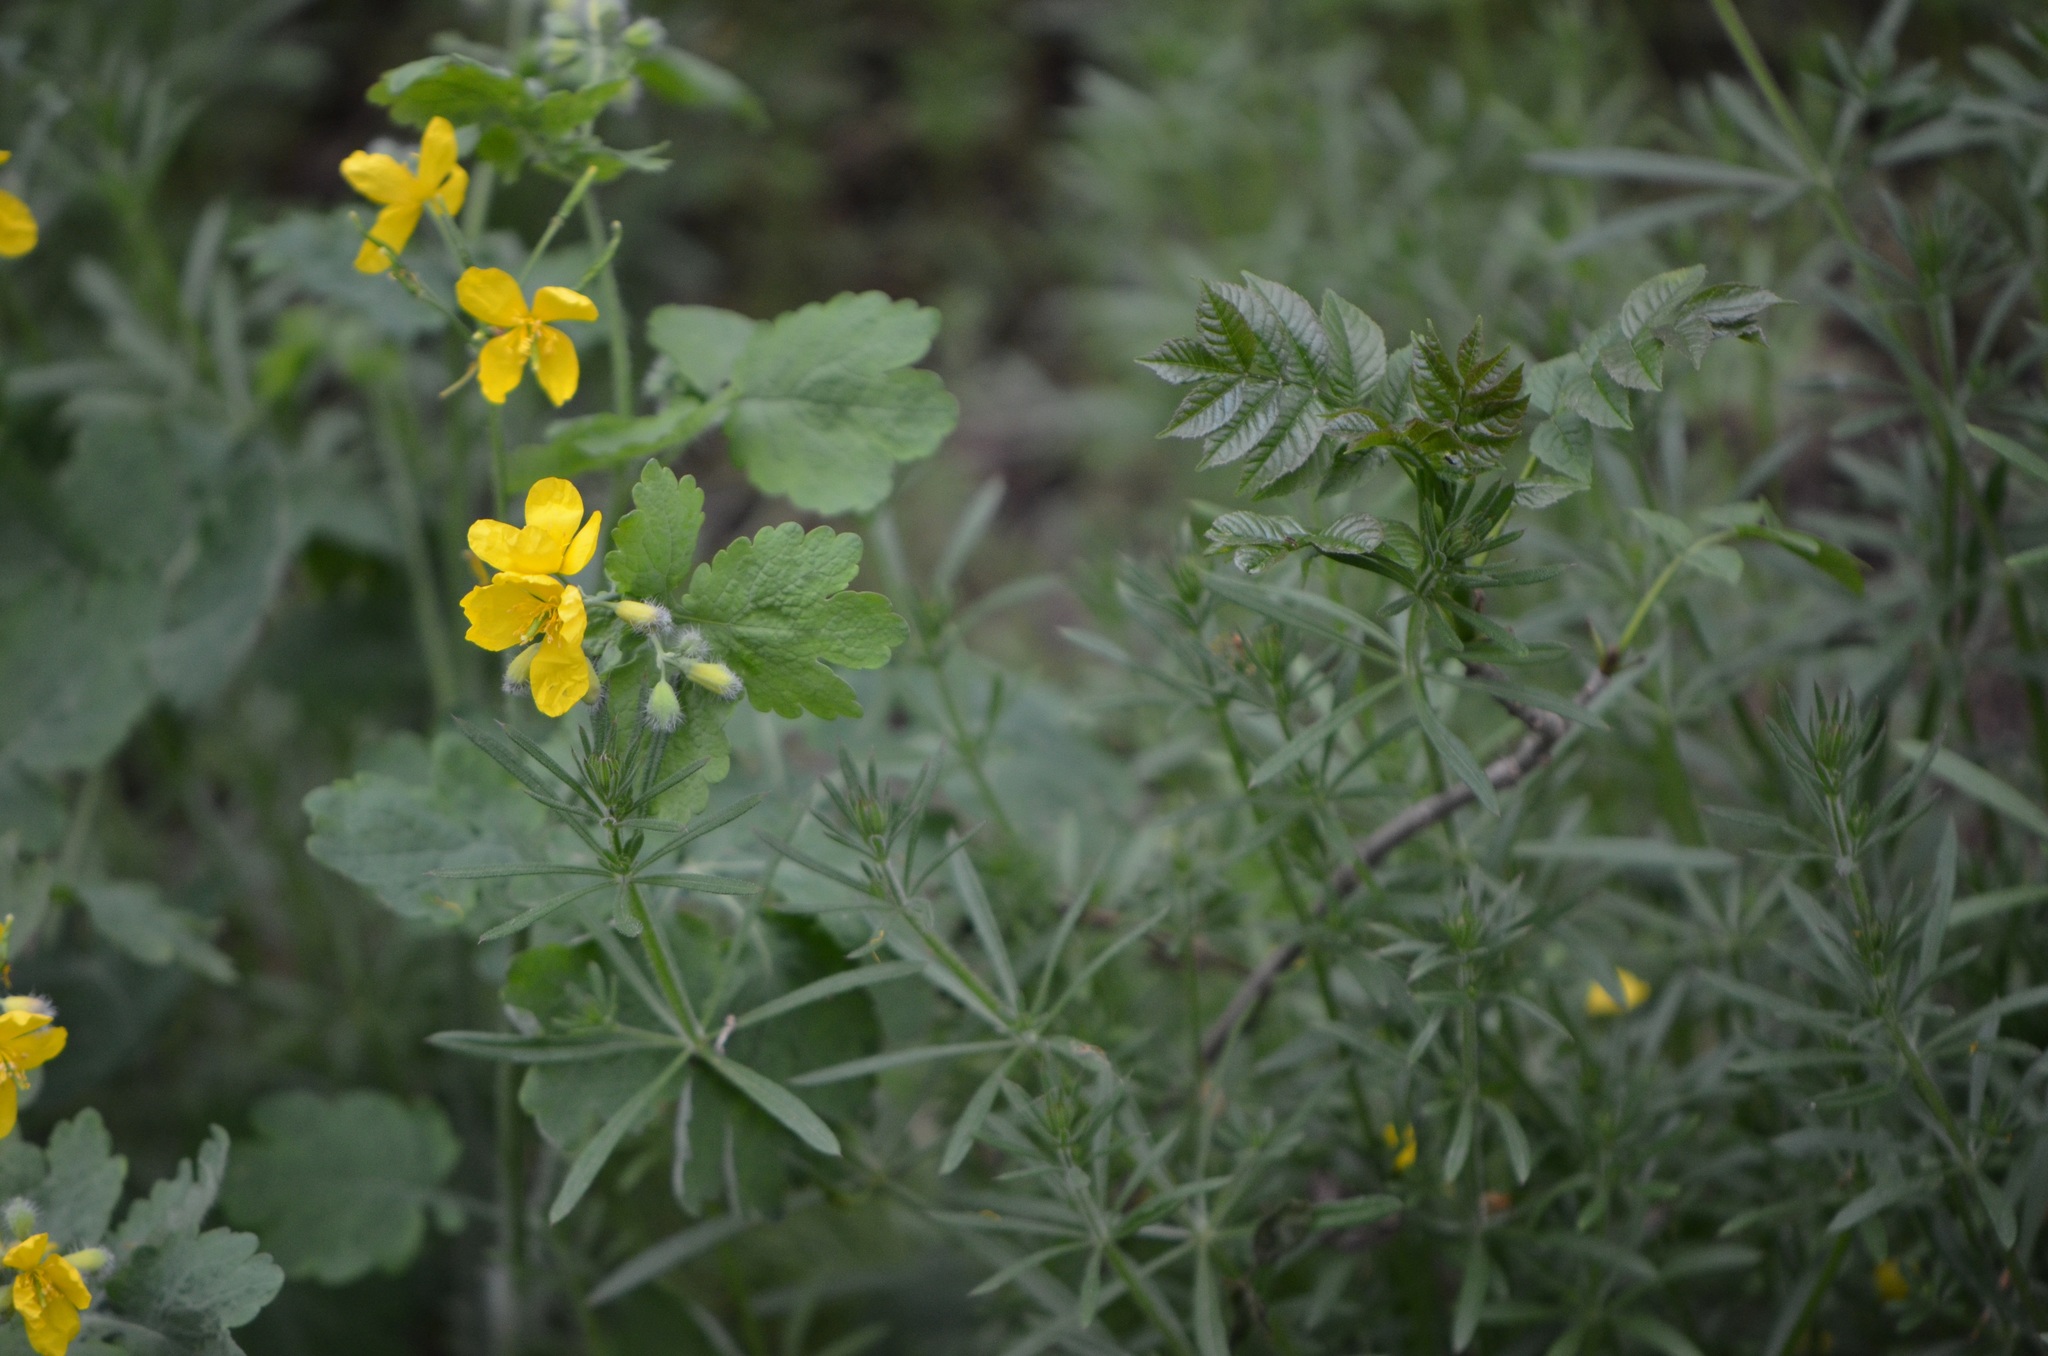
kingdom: Plantae
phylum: Tracheophyta
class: Magnoliopsida
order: Ranunculales
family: Papaveraceae
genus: Chelidonium
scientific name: Chelidonium majus
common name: Greater celandine
